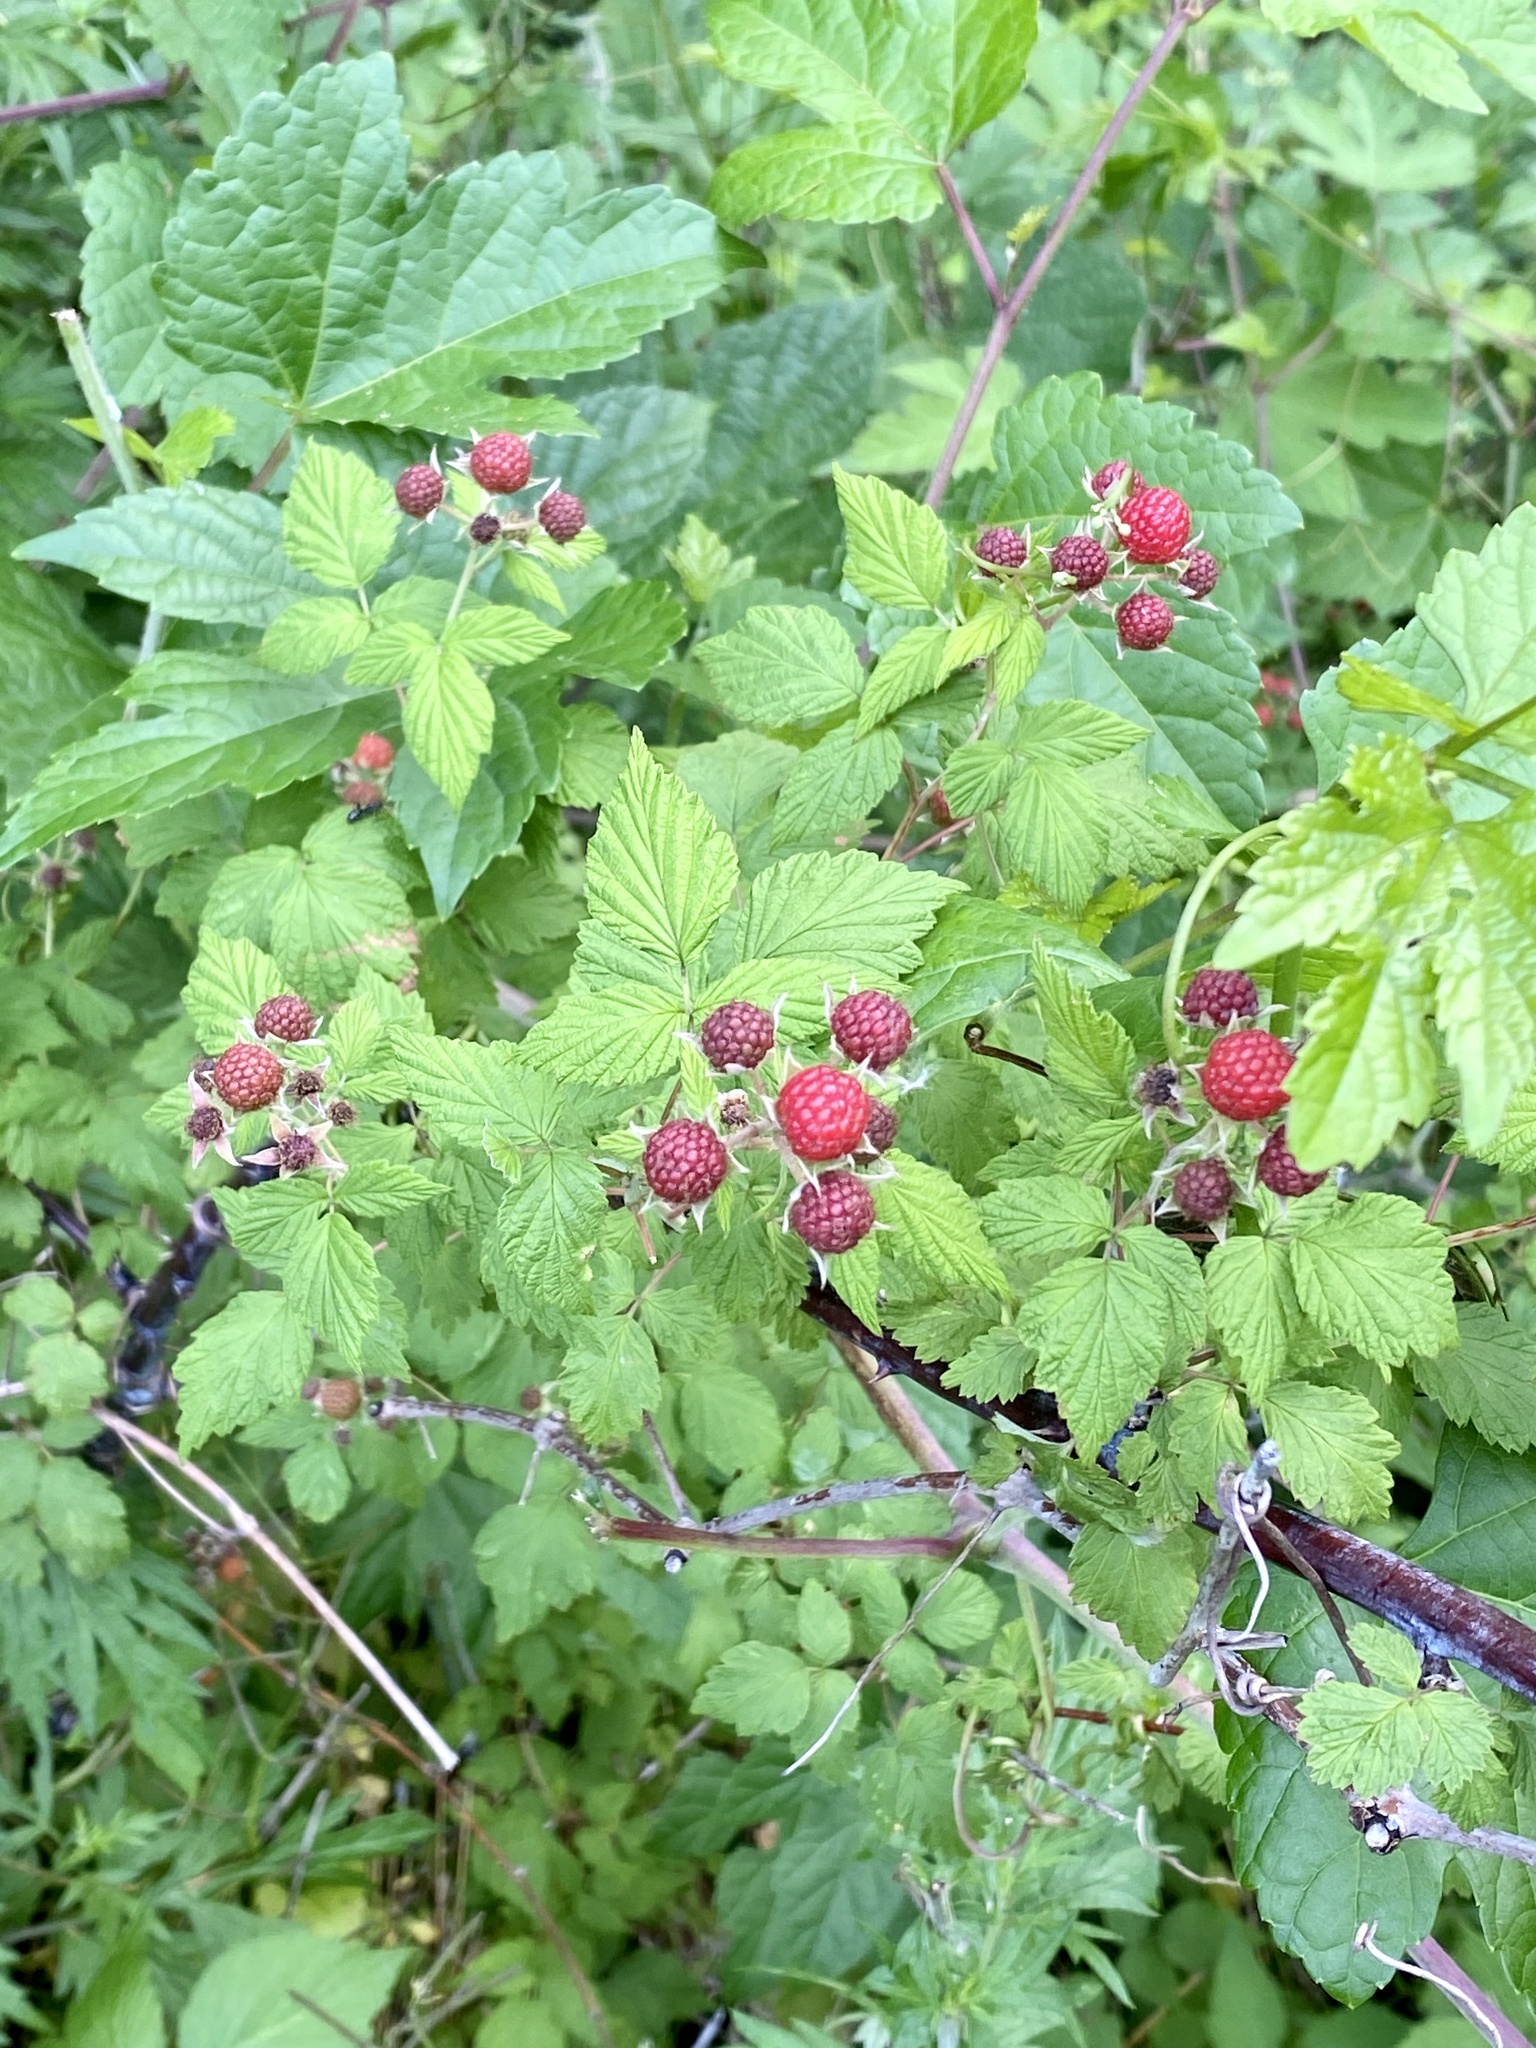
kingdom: Plantae
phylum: Tracheophyta
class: Magnoliopsida
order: Rosales
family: Rosaceae
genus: Rubus
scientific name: Rubus occidentalis
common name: Black raspberry
